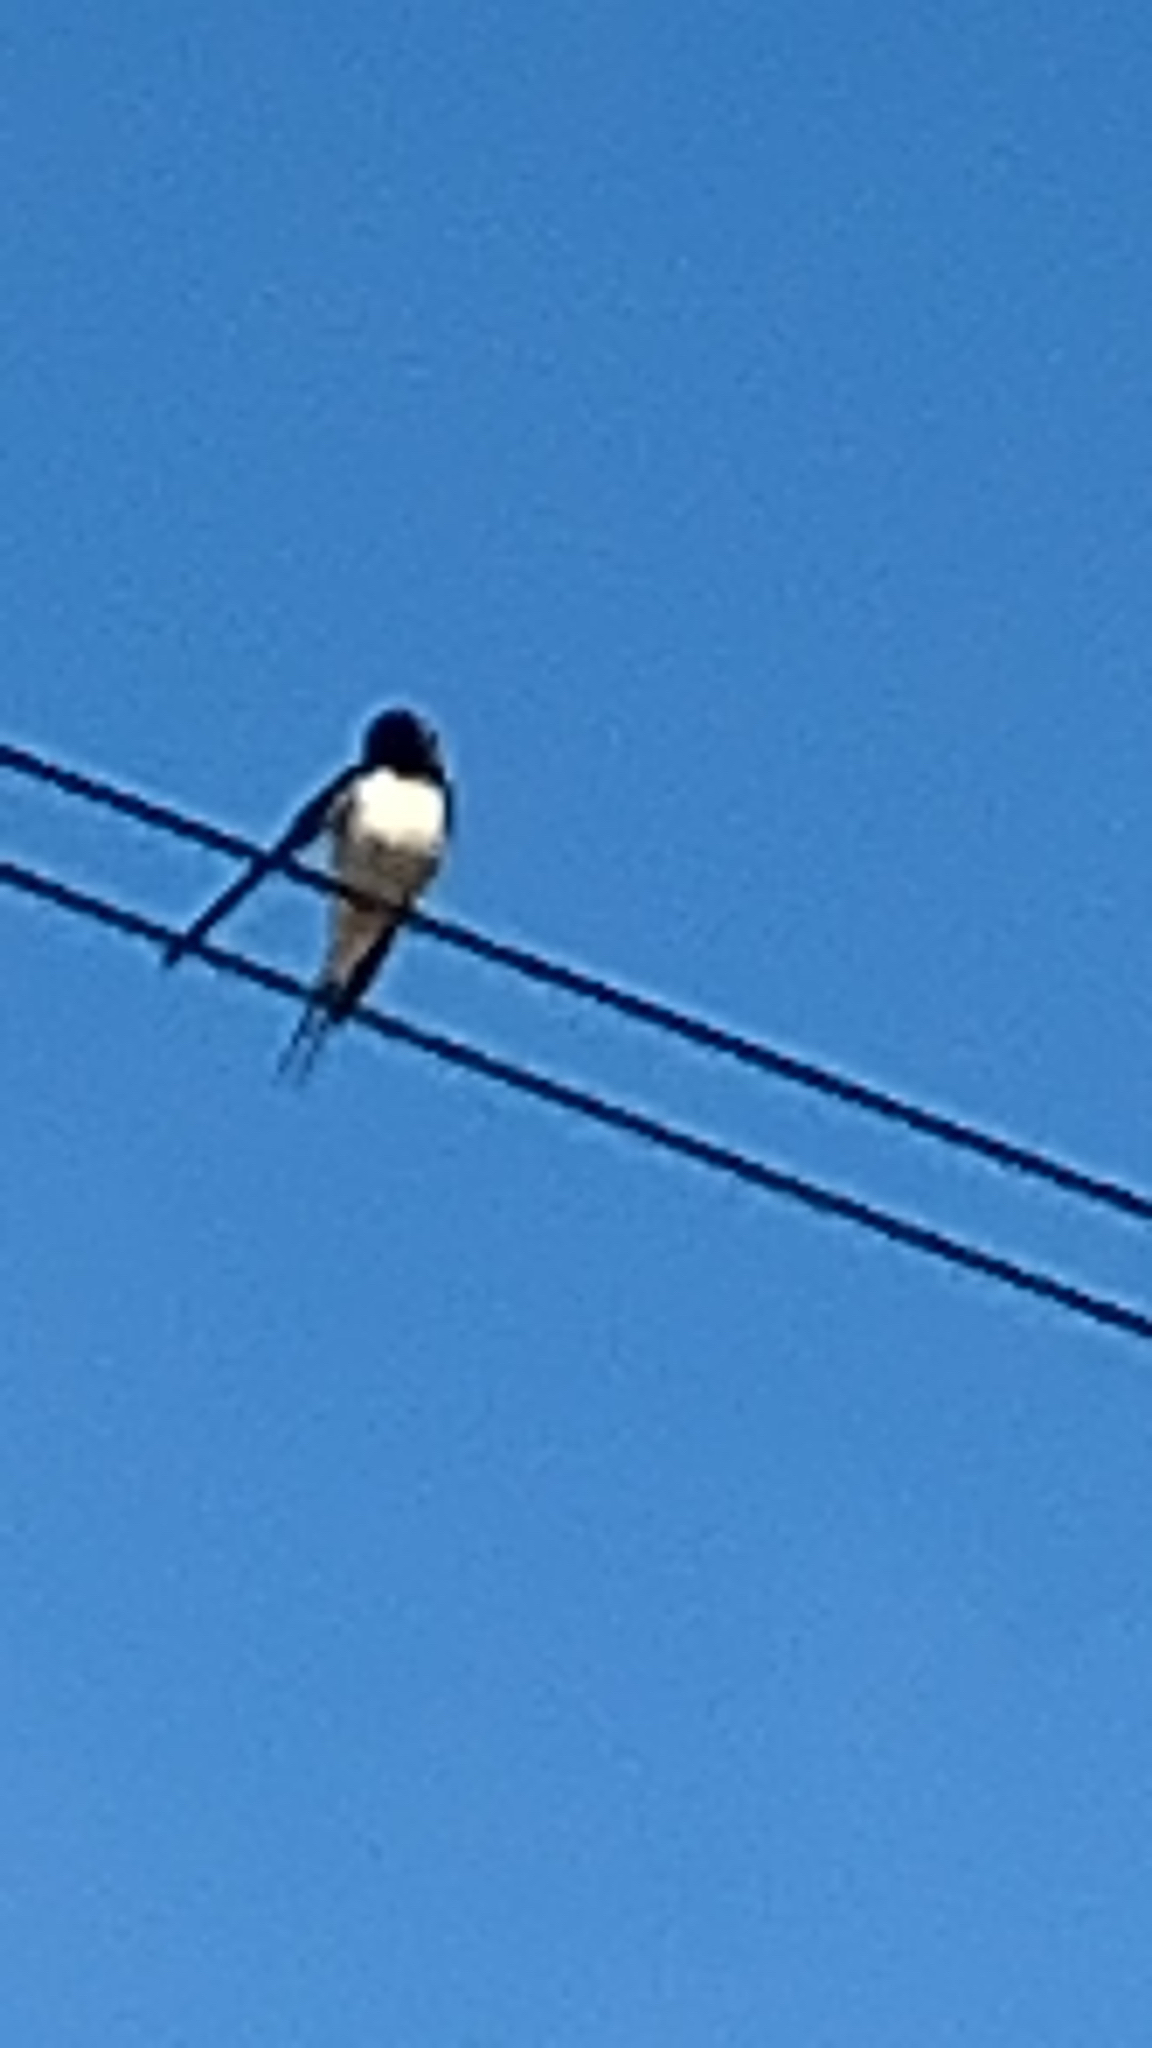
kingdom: Animalia
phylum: Chordata
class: Aves
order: Passeriformes
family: Hirundinidae
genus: Hirundo
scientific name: Hirundo rustica
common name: Barn swallow
